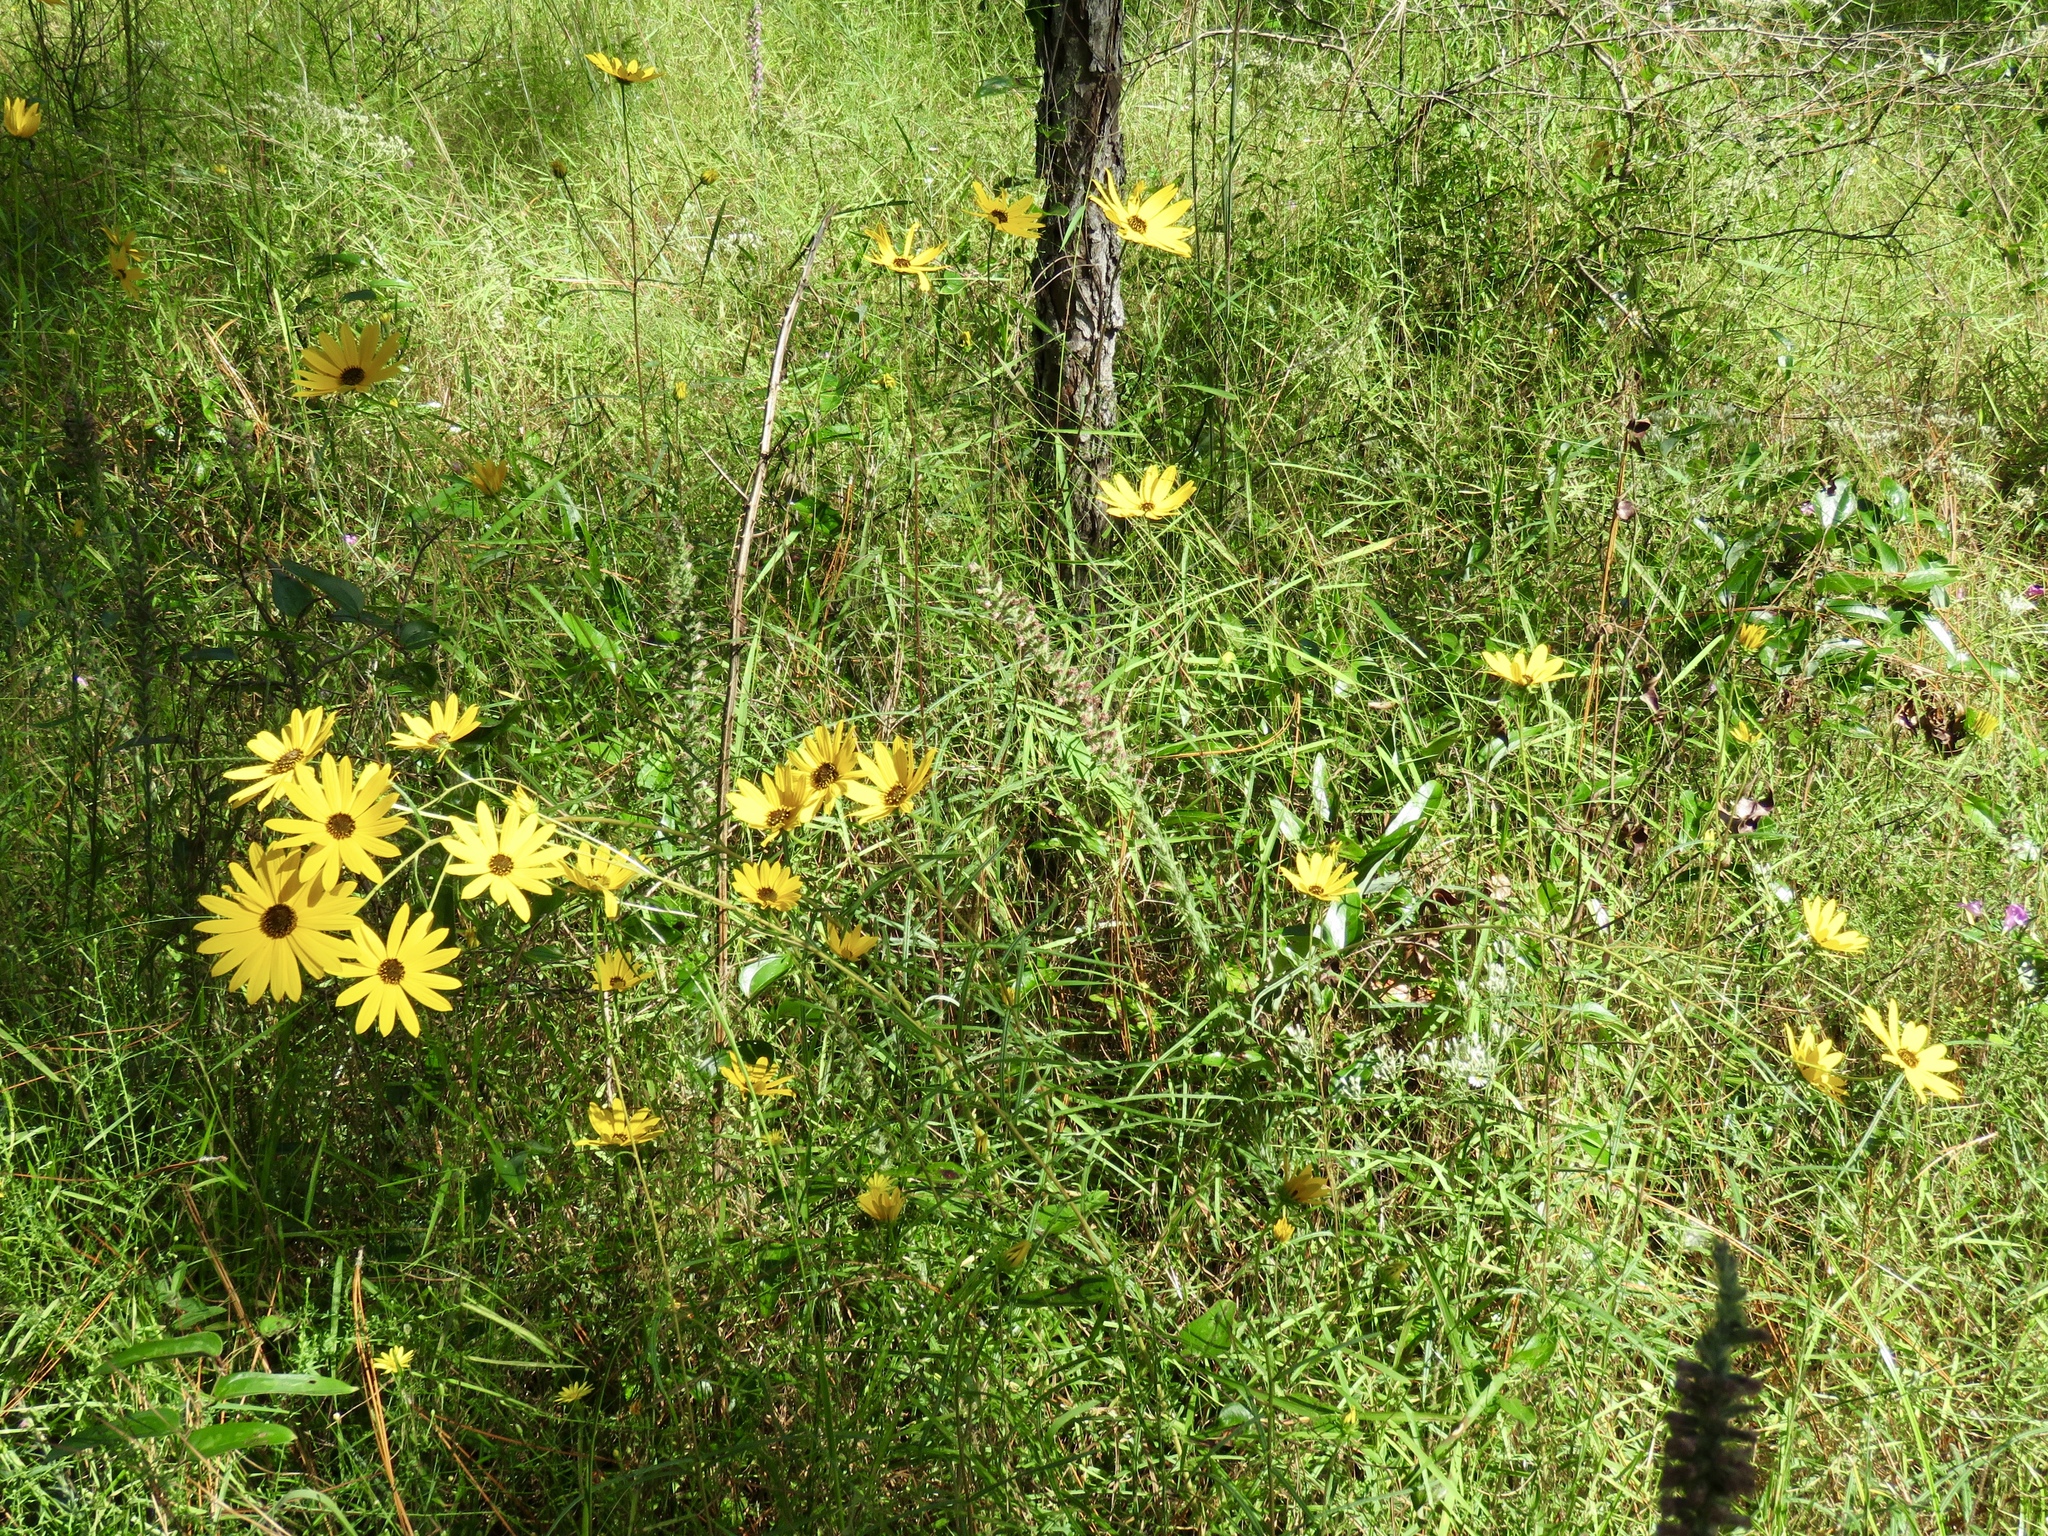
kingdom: Plantae
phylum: Tracheophyta
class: Magnoliopsida
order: Asterales
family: Asteraceae
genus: Helianthus
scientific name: Helianthus angustifolius
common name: Swamp sunflower
